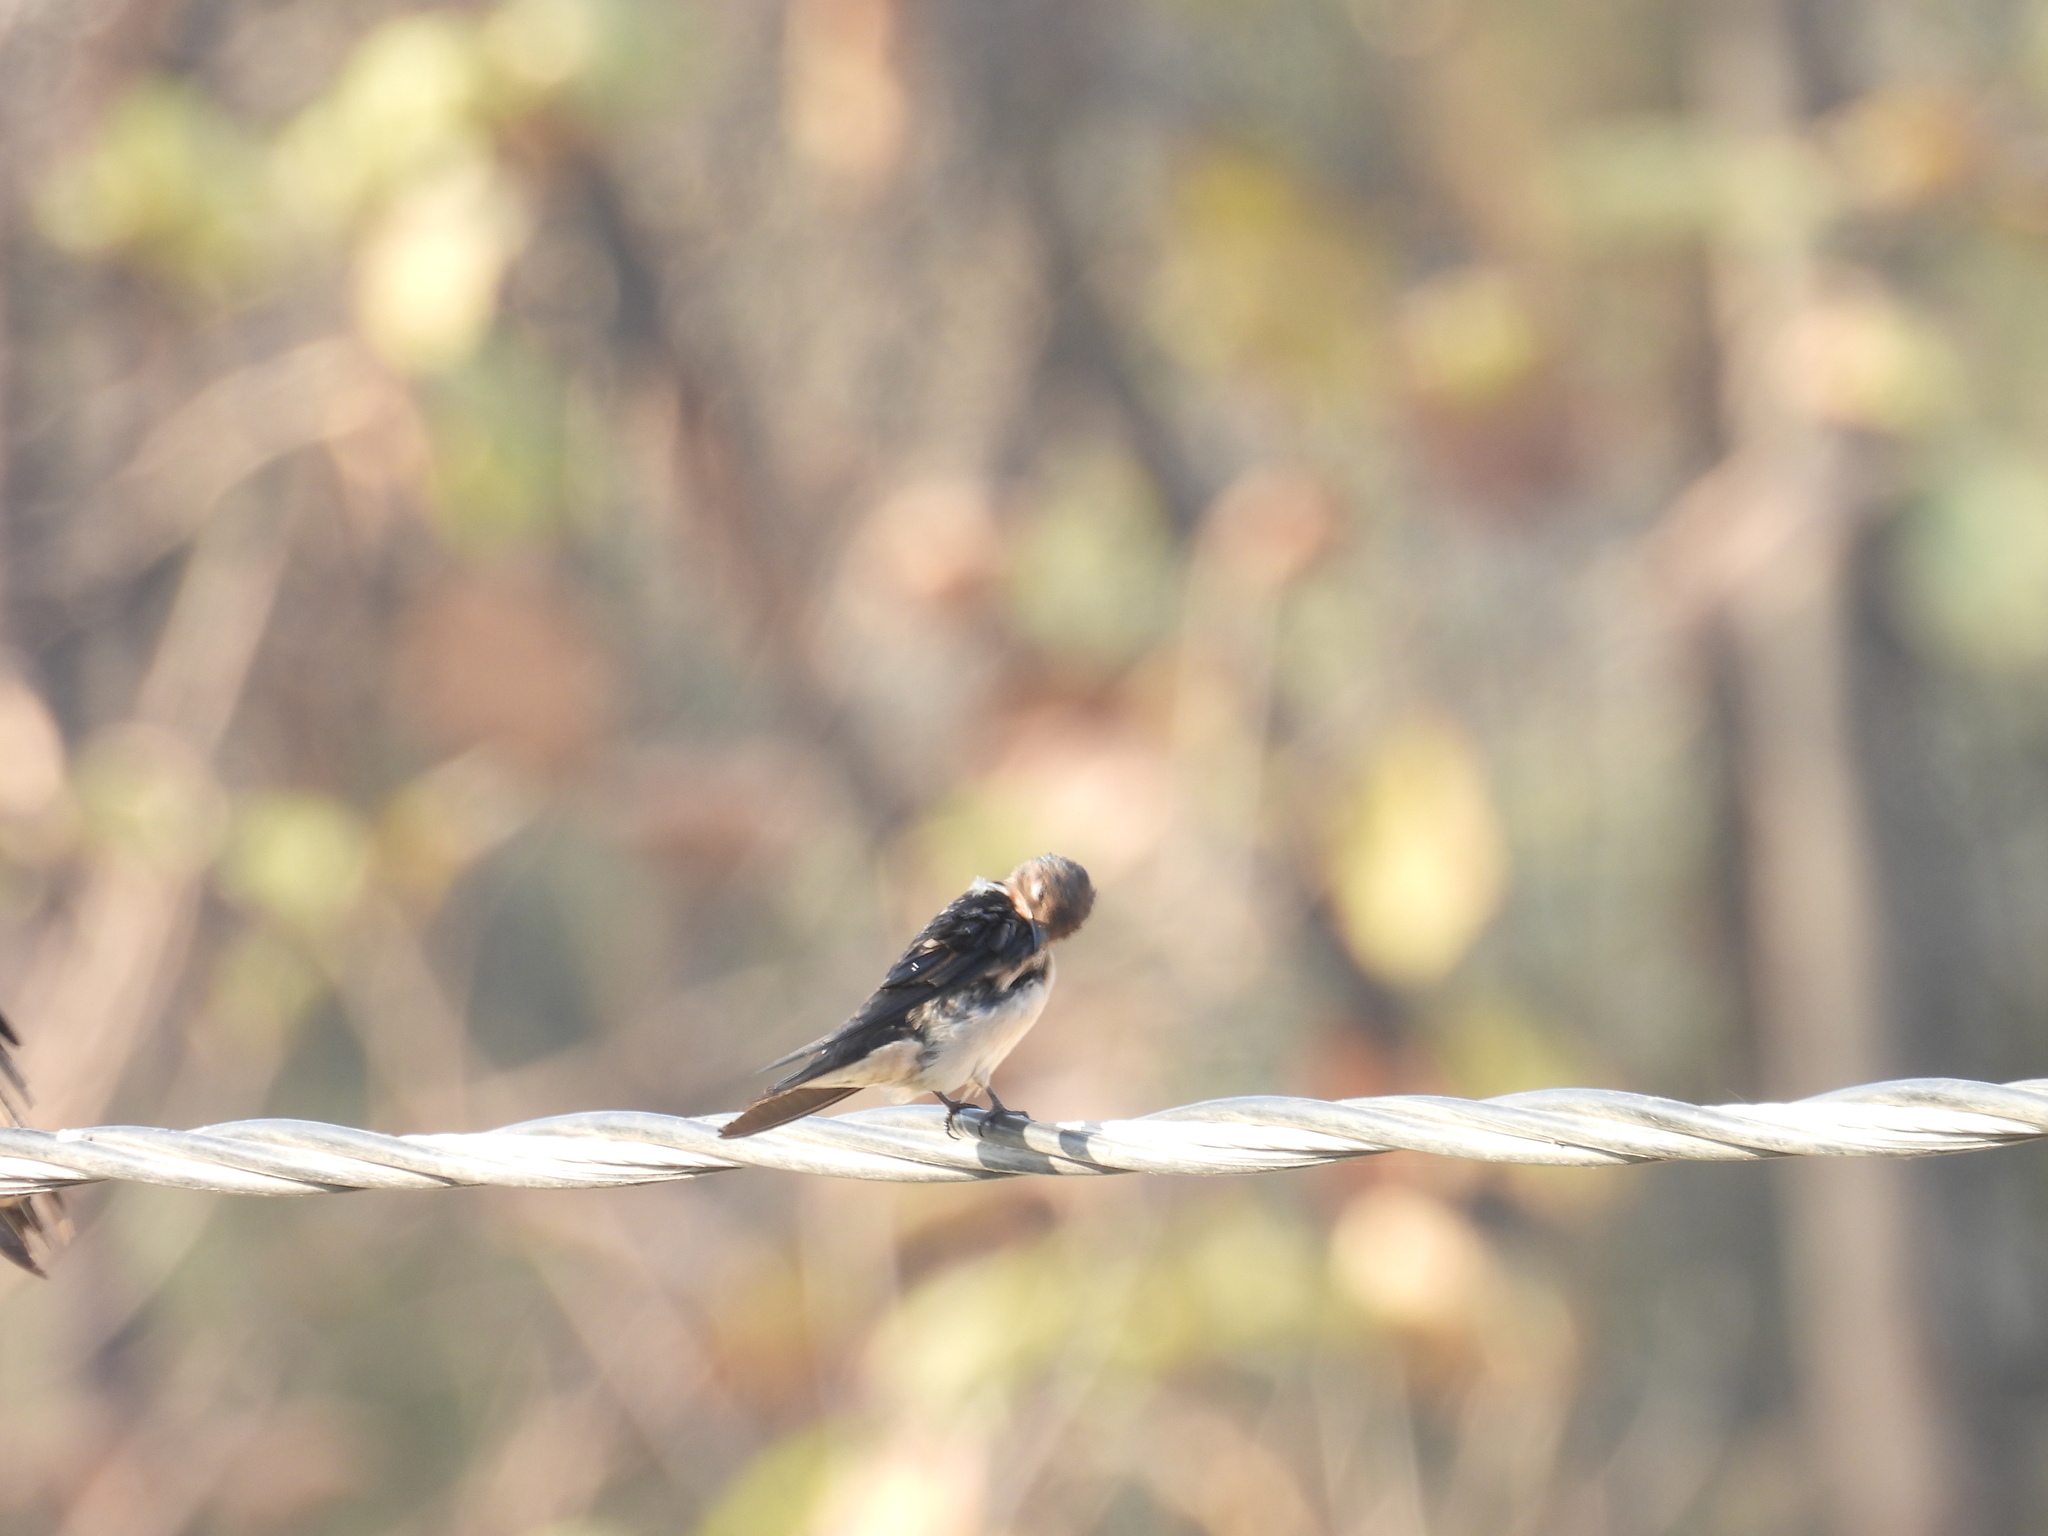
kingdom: Animalia
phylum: Chordata
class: Aves
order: Passeriformes
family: Hirundinidae
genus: Hirundo
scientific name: Hirundo rustica
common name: Barn swallow
